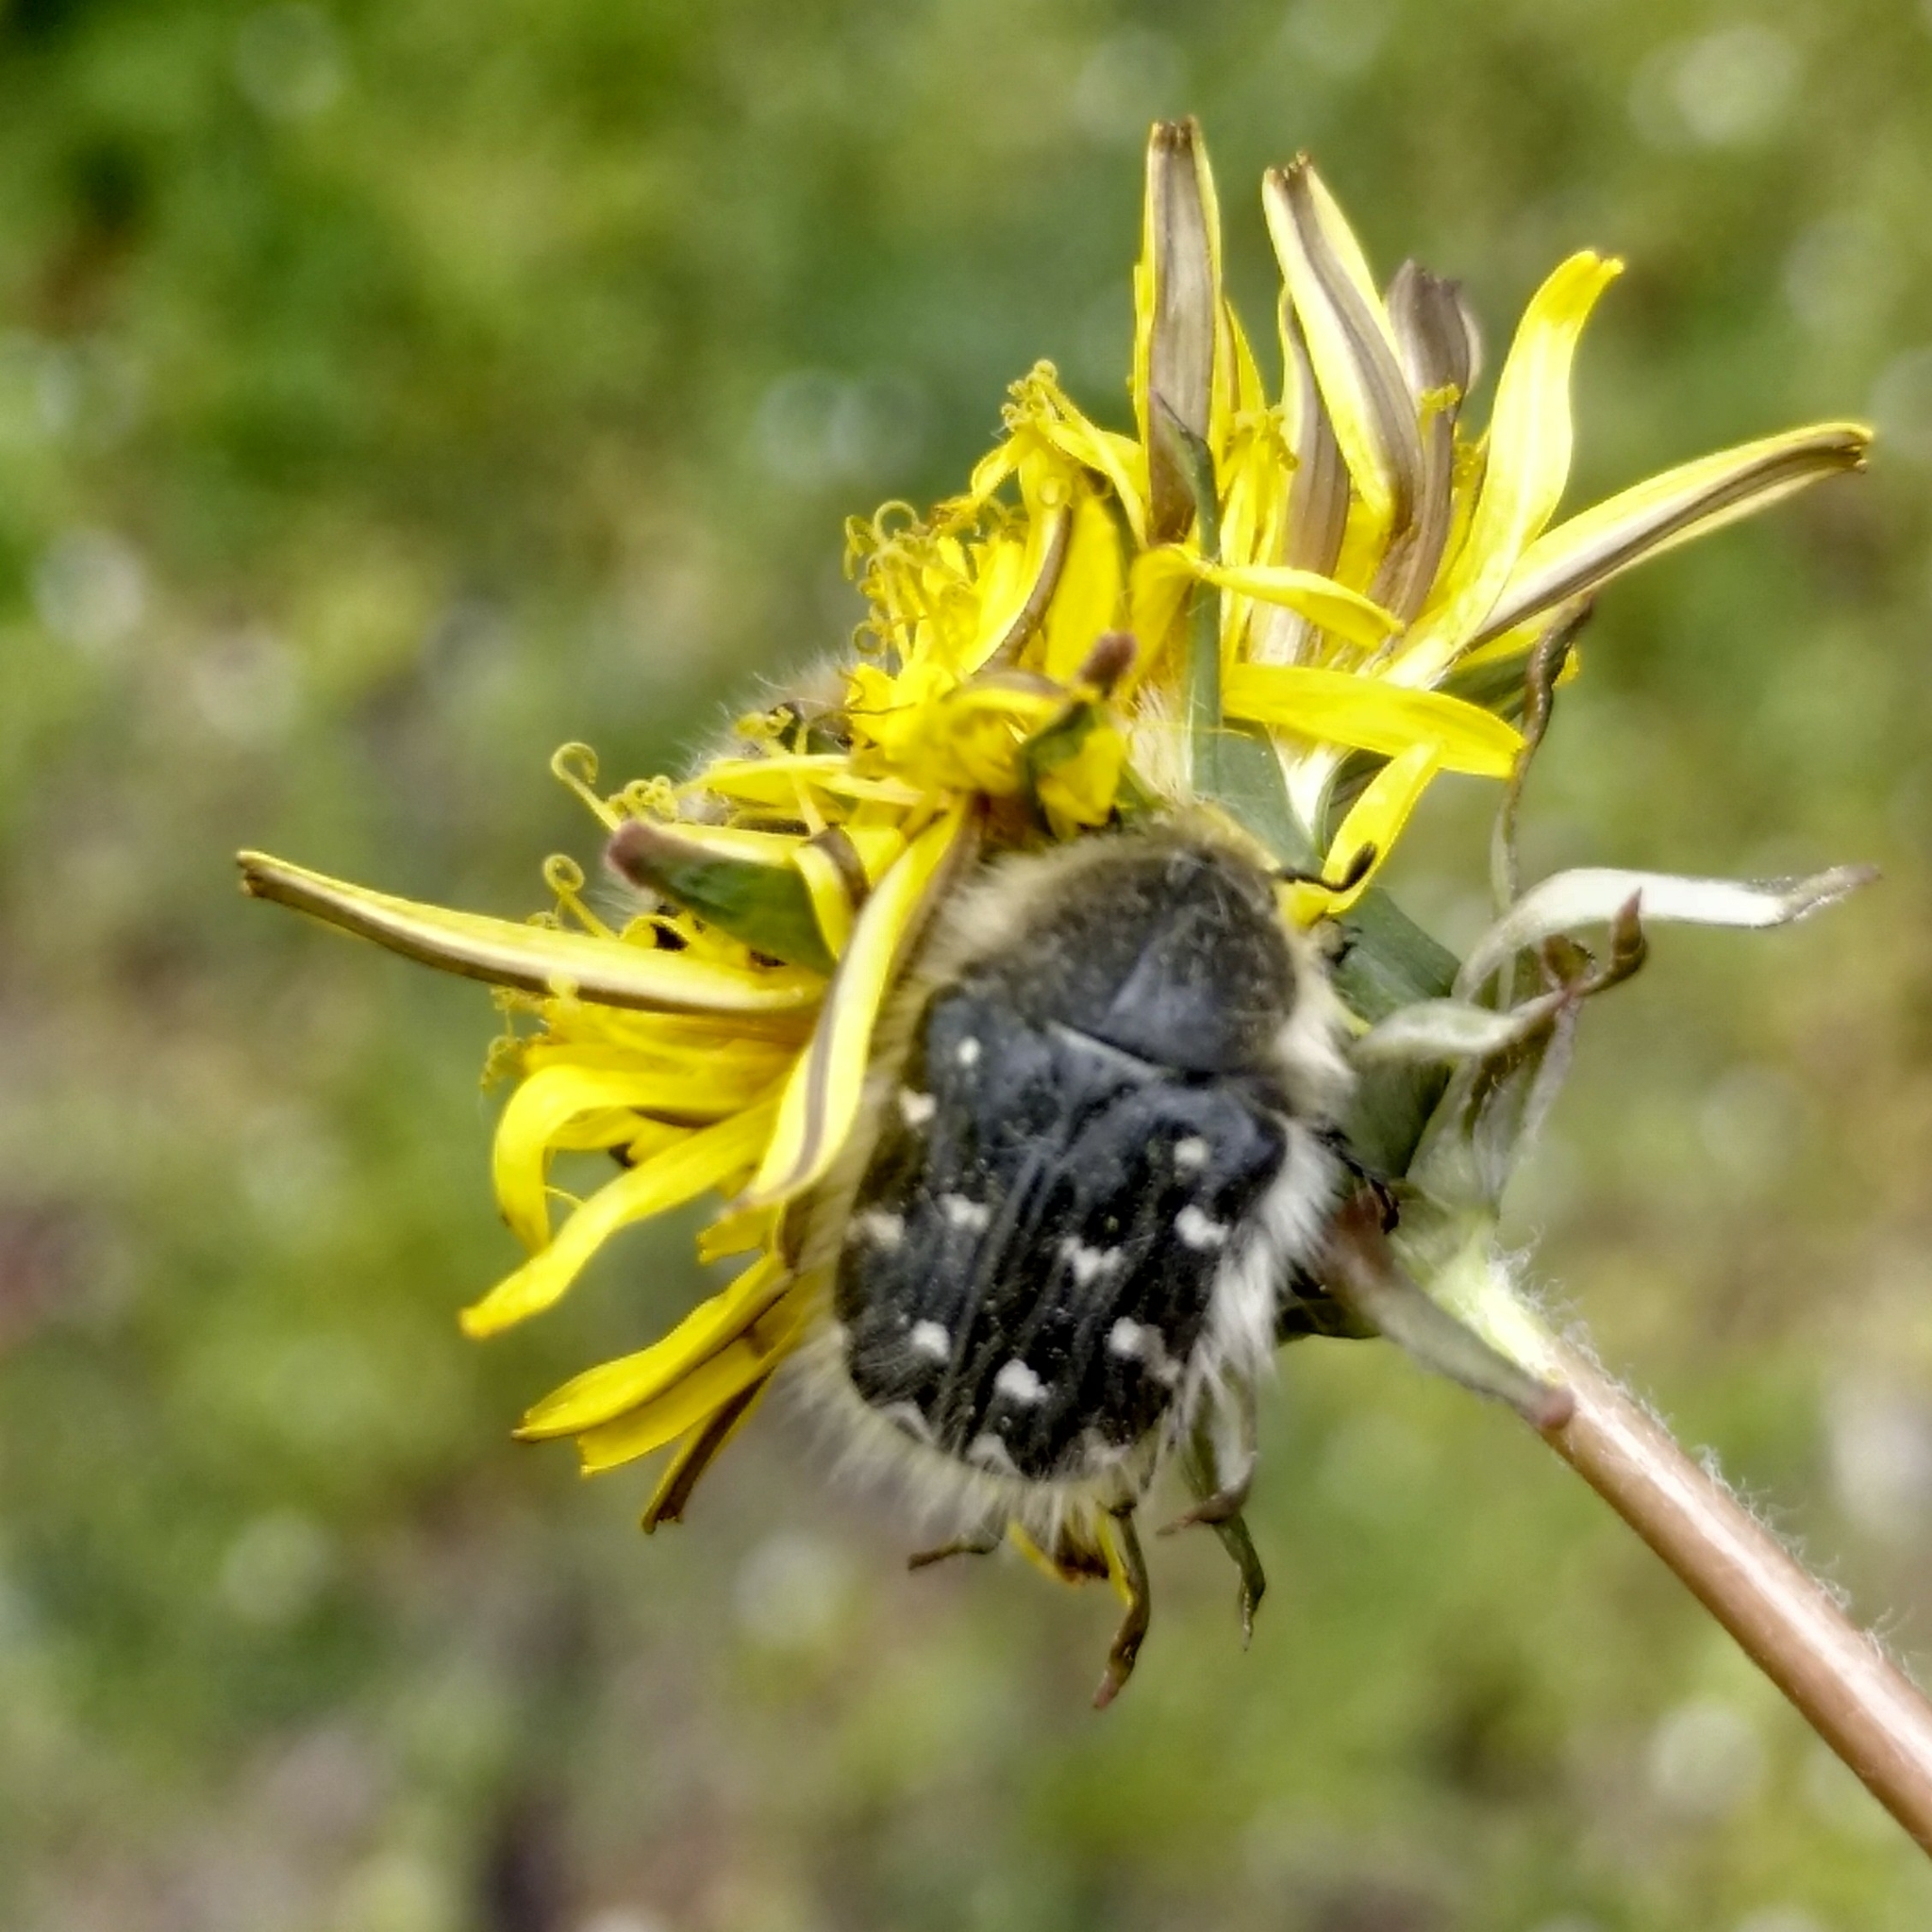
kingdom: Animalia
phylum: Arthropoda
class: Insecta
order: Coleoptera
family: Scarabaeidae
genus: Tropinota
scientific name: Tropinota hirta
